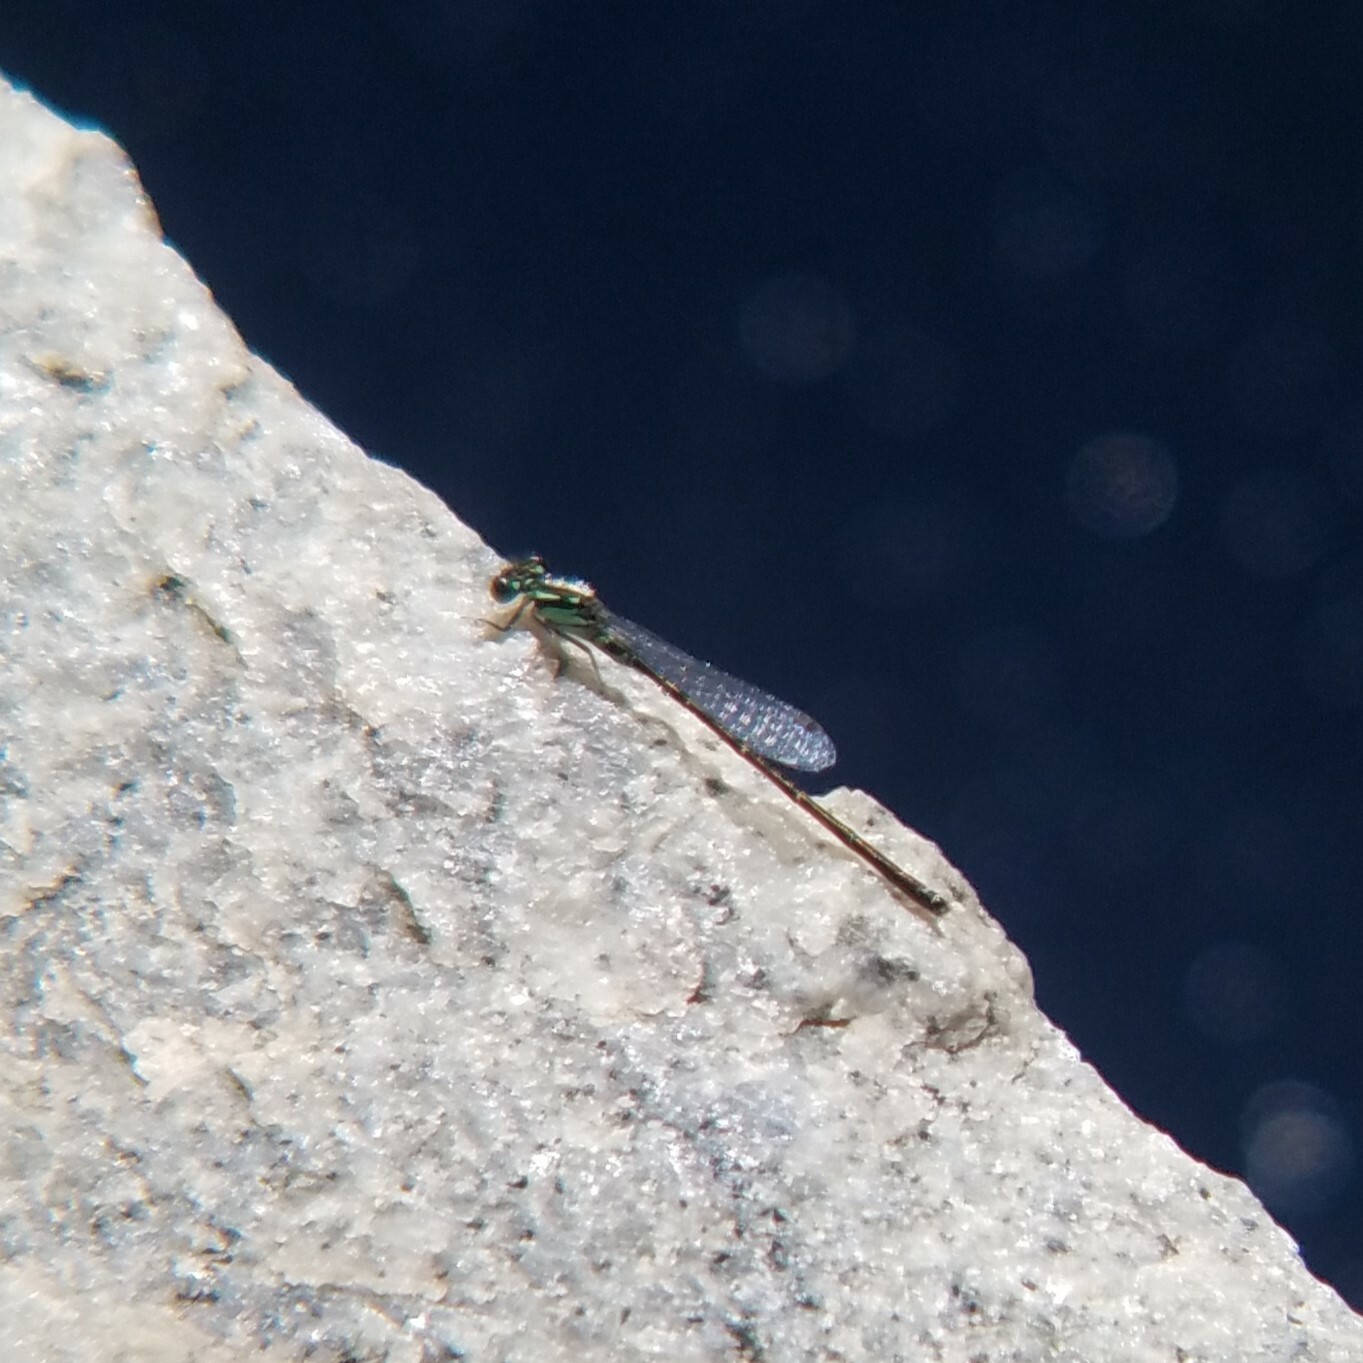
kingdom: Animalia
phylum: Arthropoda
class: Insecta
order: Odonata
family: Coenagrionidae
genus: Ischnura
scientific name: Ischnura posita
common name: Fragile forktail
